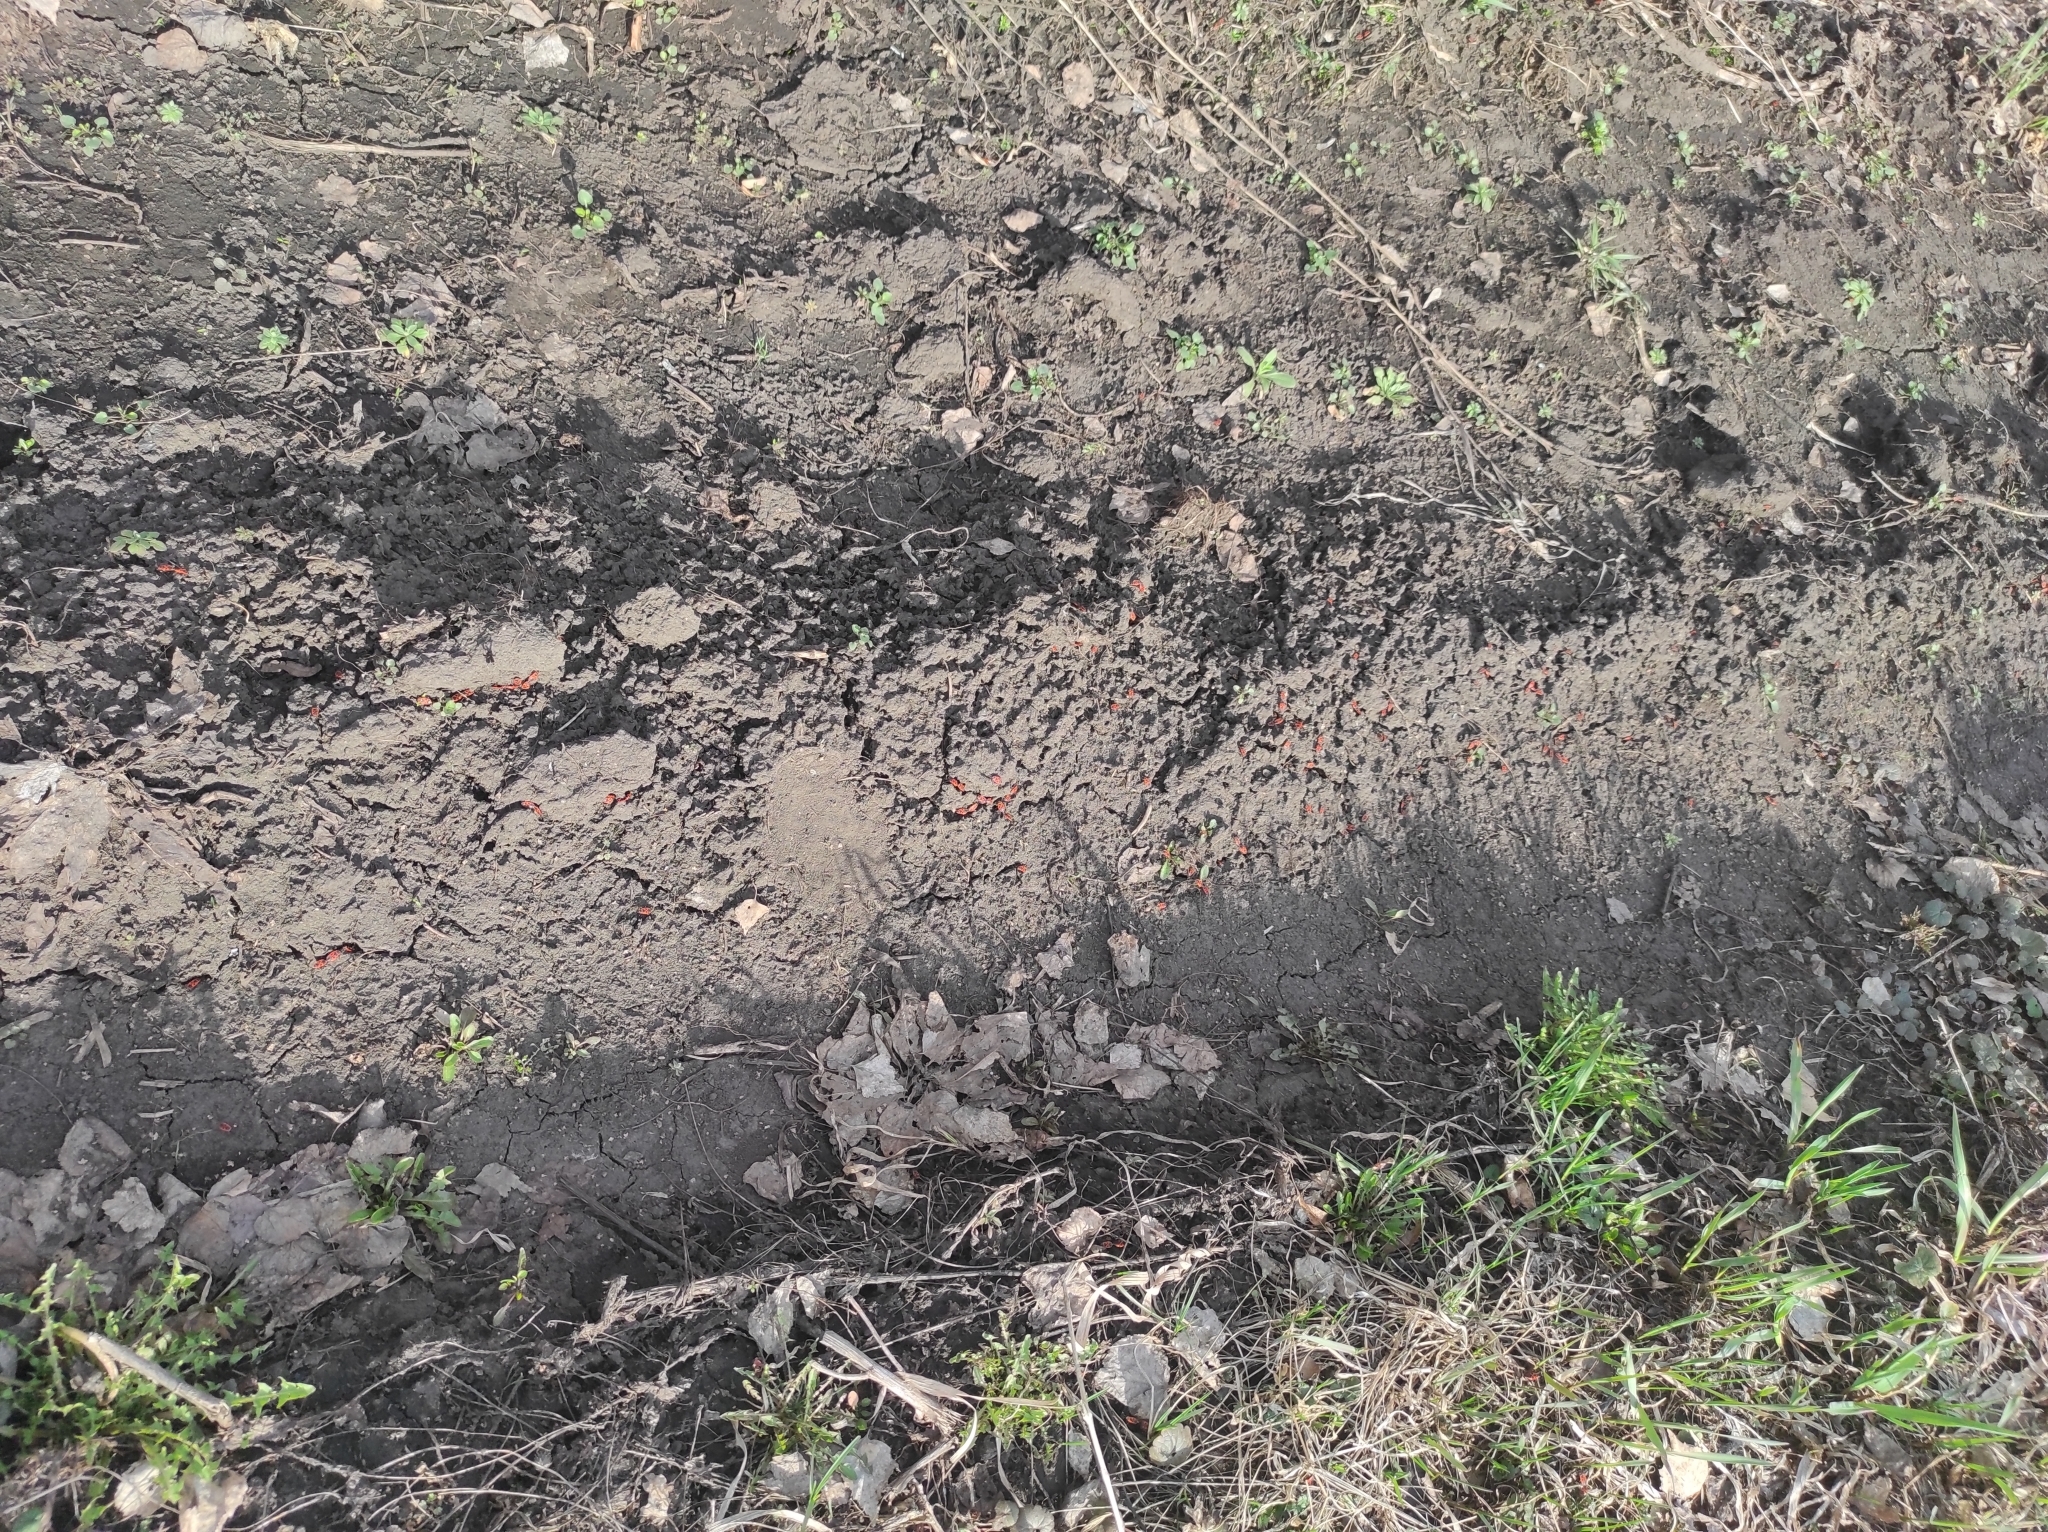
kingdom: Animalia
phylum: Arthropoda
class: Insecta
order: Hemiptera
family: Pyrrhocoridae
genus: Pyrrhocoris
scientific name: Pyrrhocoris apterus
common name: Firebug
